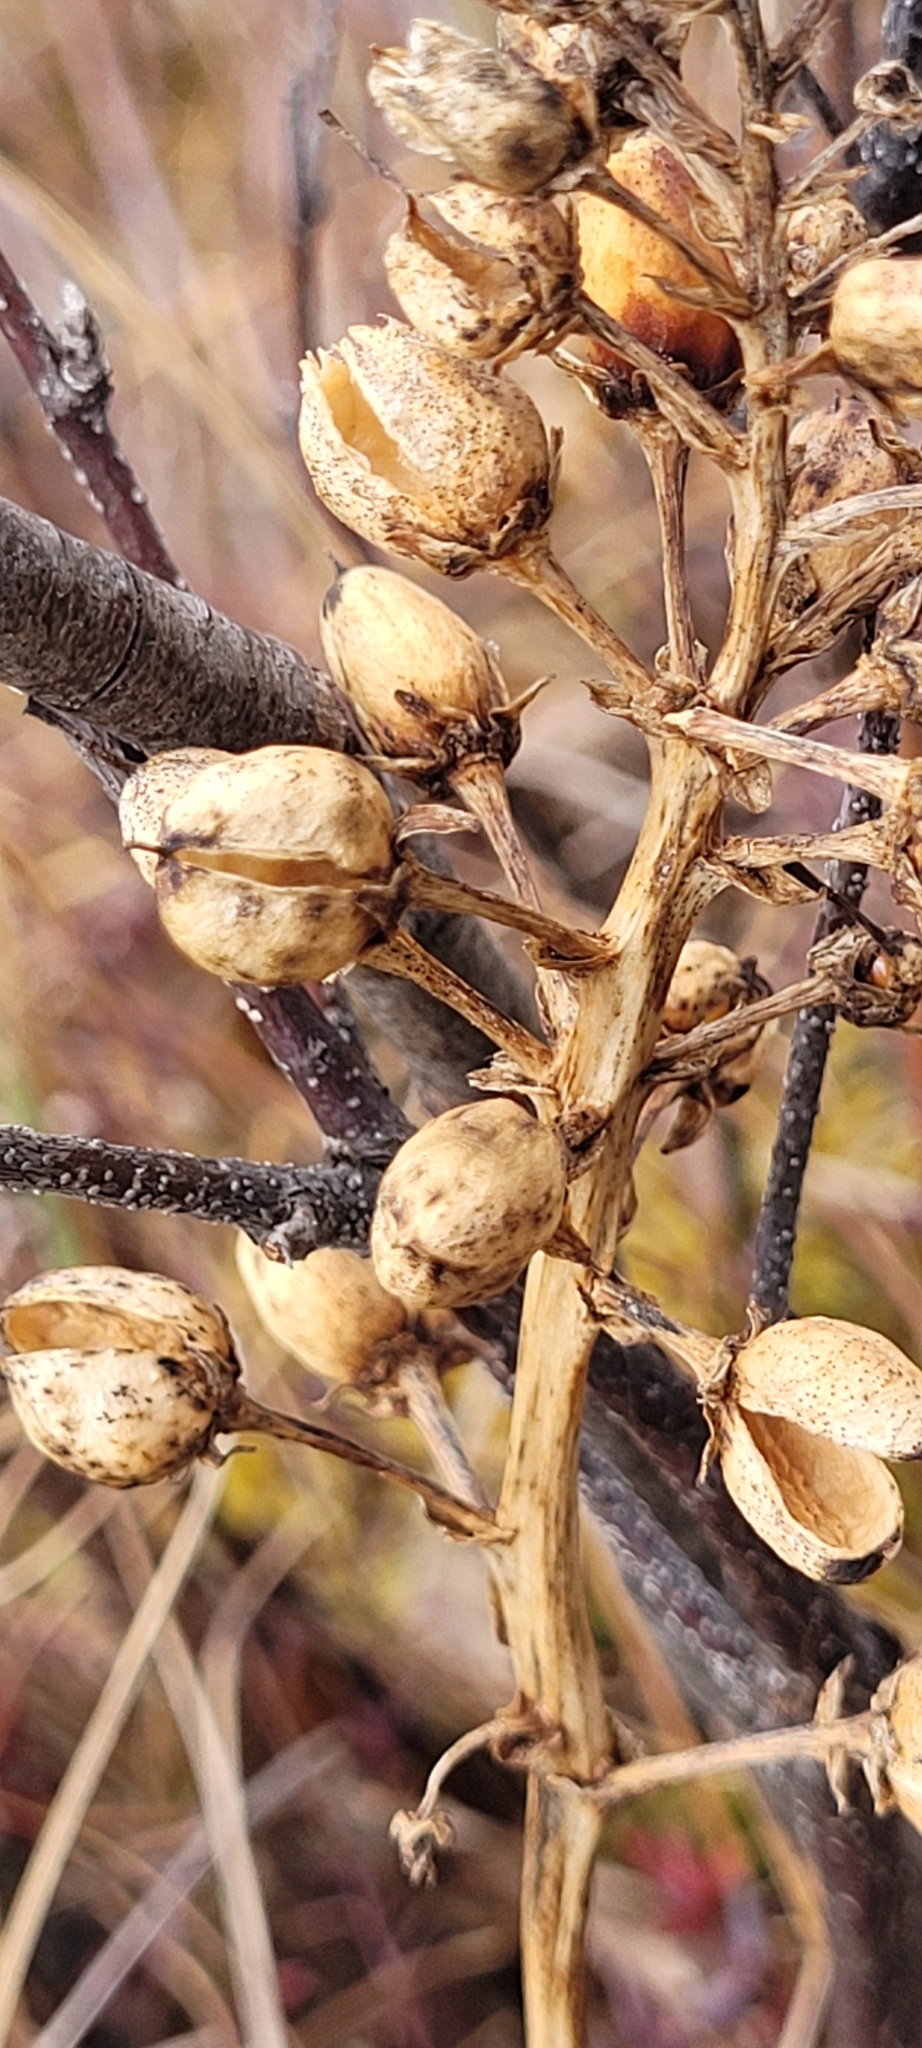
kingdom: Plantae
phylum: Tracheophyta
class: Magnoliopsida
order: Asterales
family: Menyanthaceae
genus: Menyanthes
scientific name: Menyanthes trifoliata
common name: Bogbean
